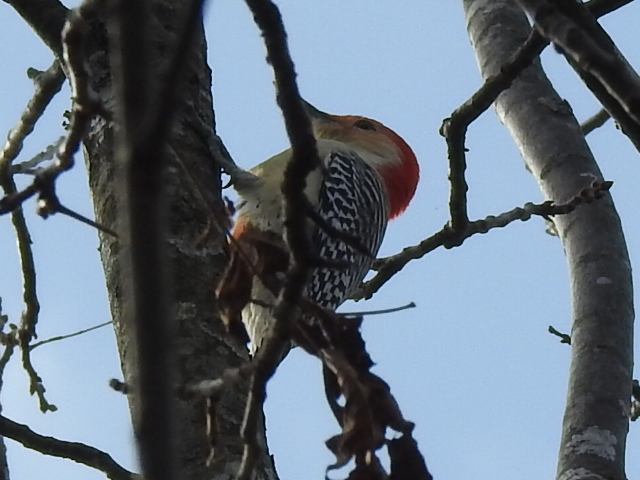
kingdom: Animalia
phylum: Chordata
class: Aves
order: Piciformes
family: Picidae
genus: Melanerpes
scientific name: Melanerpes carolinus
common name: Red-bellied woodpecker
